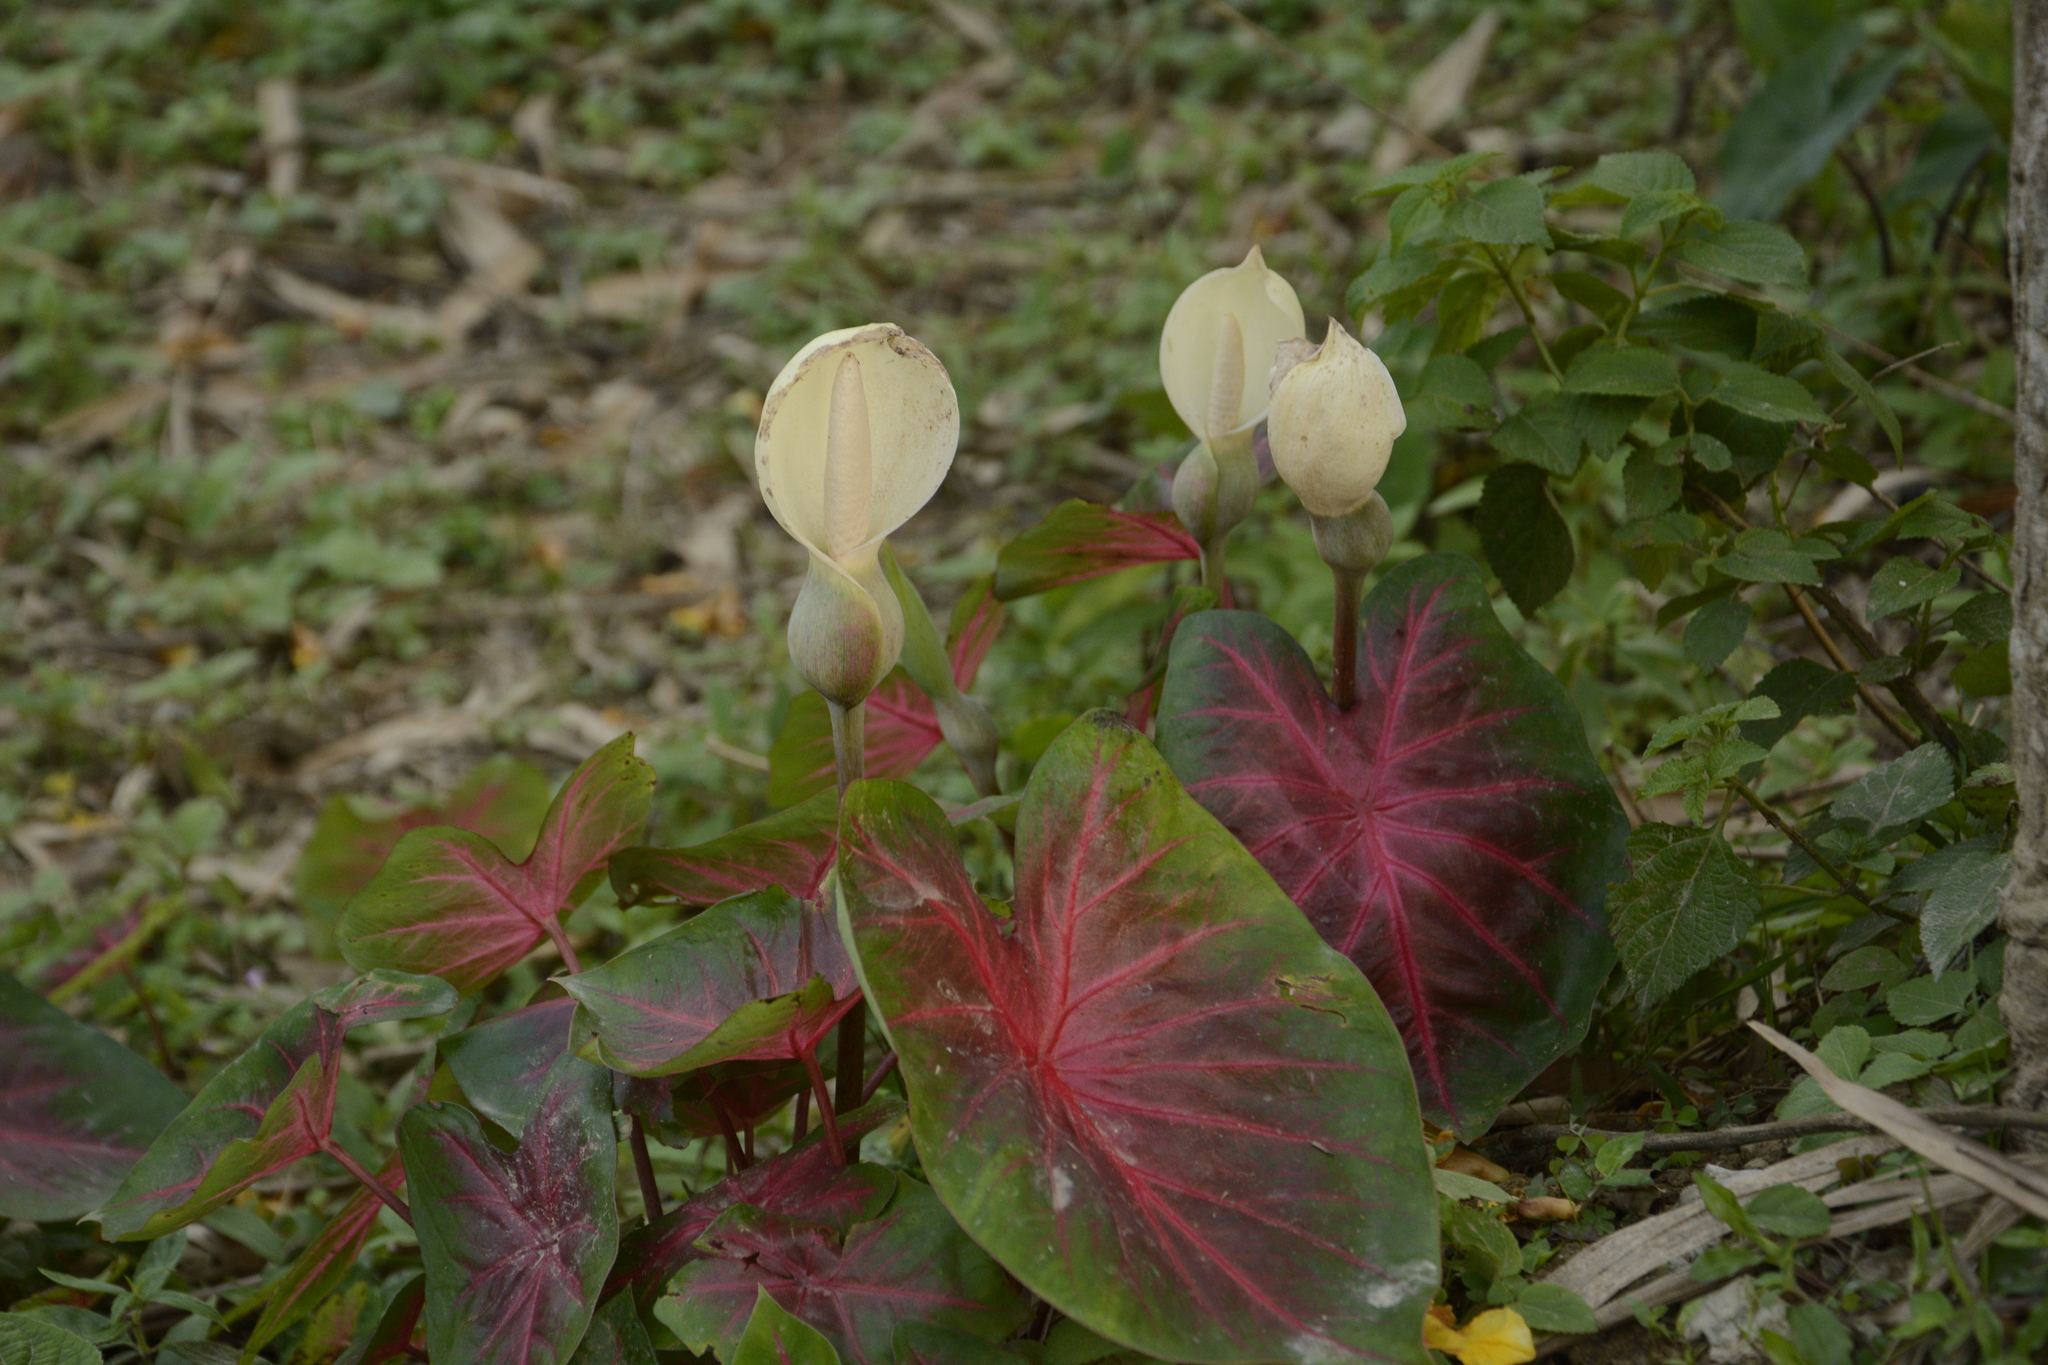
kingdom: Plantae
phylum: Tracheophyta
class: Liliopsida
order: Alismatales
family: Araceae
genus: Caladium
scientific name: Caladium bicolor
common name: Artist's pallet
